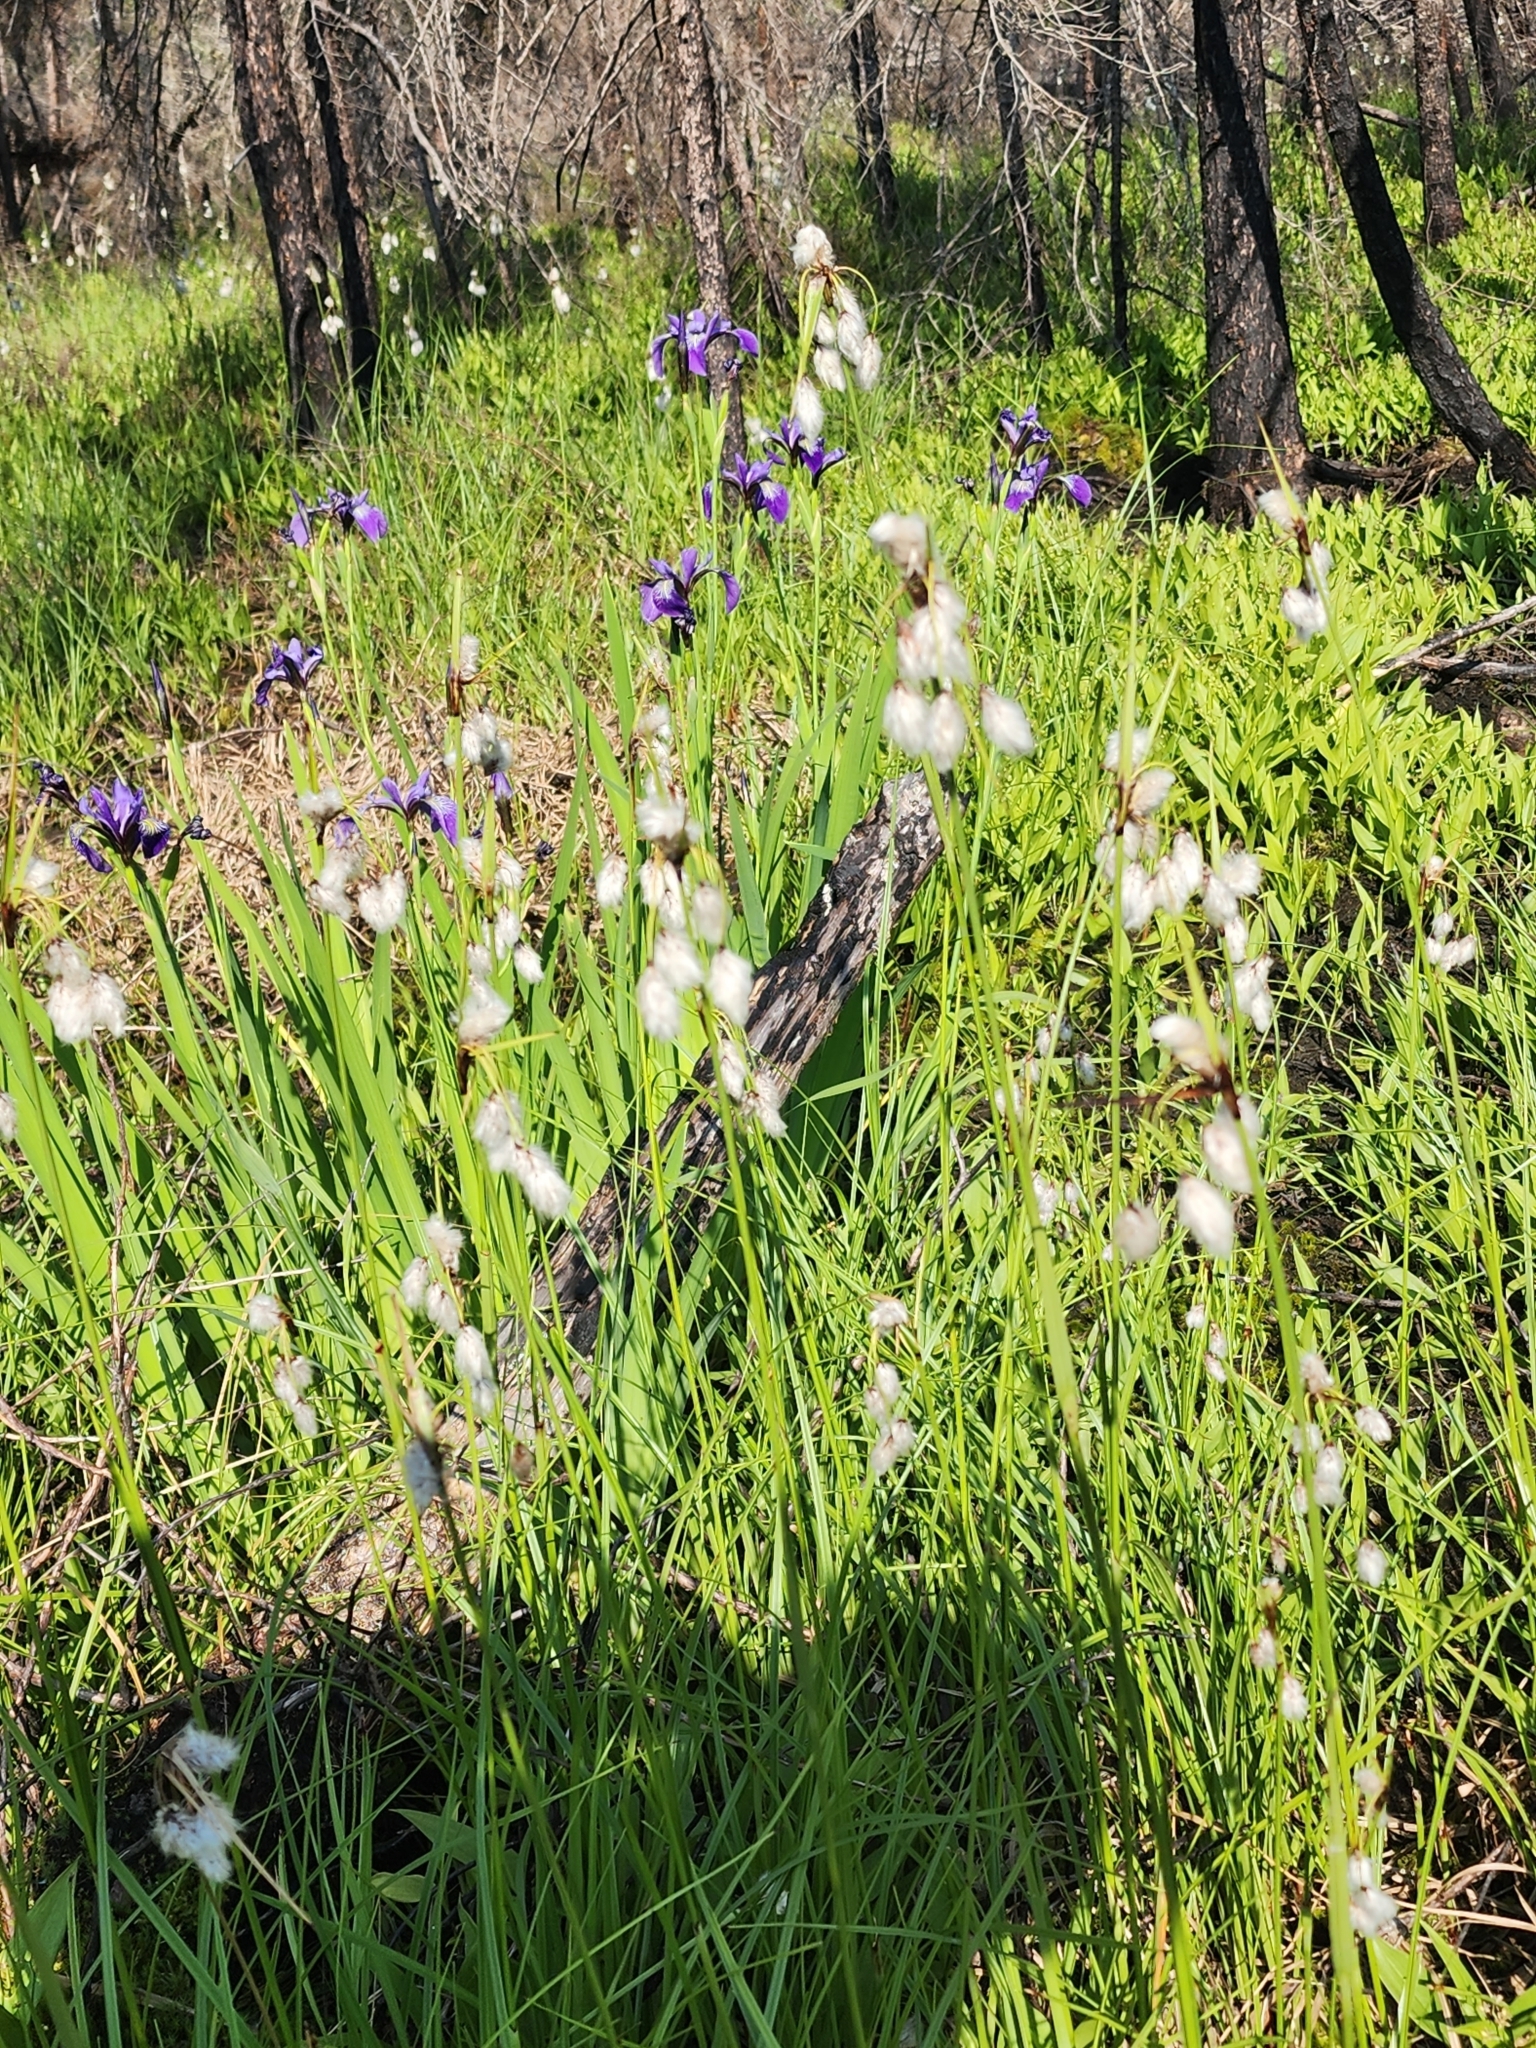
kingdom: Plantae
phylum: Tracheophyta
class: Liliopsida
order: Asparagales
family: Iridaceae
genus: Iris
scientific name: Iris versicolor
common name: Purple iris
